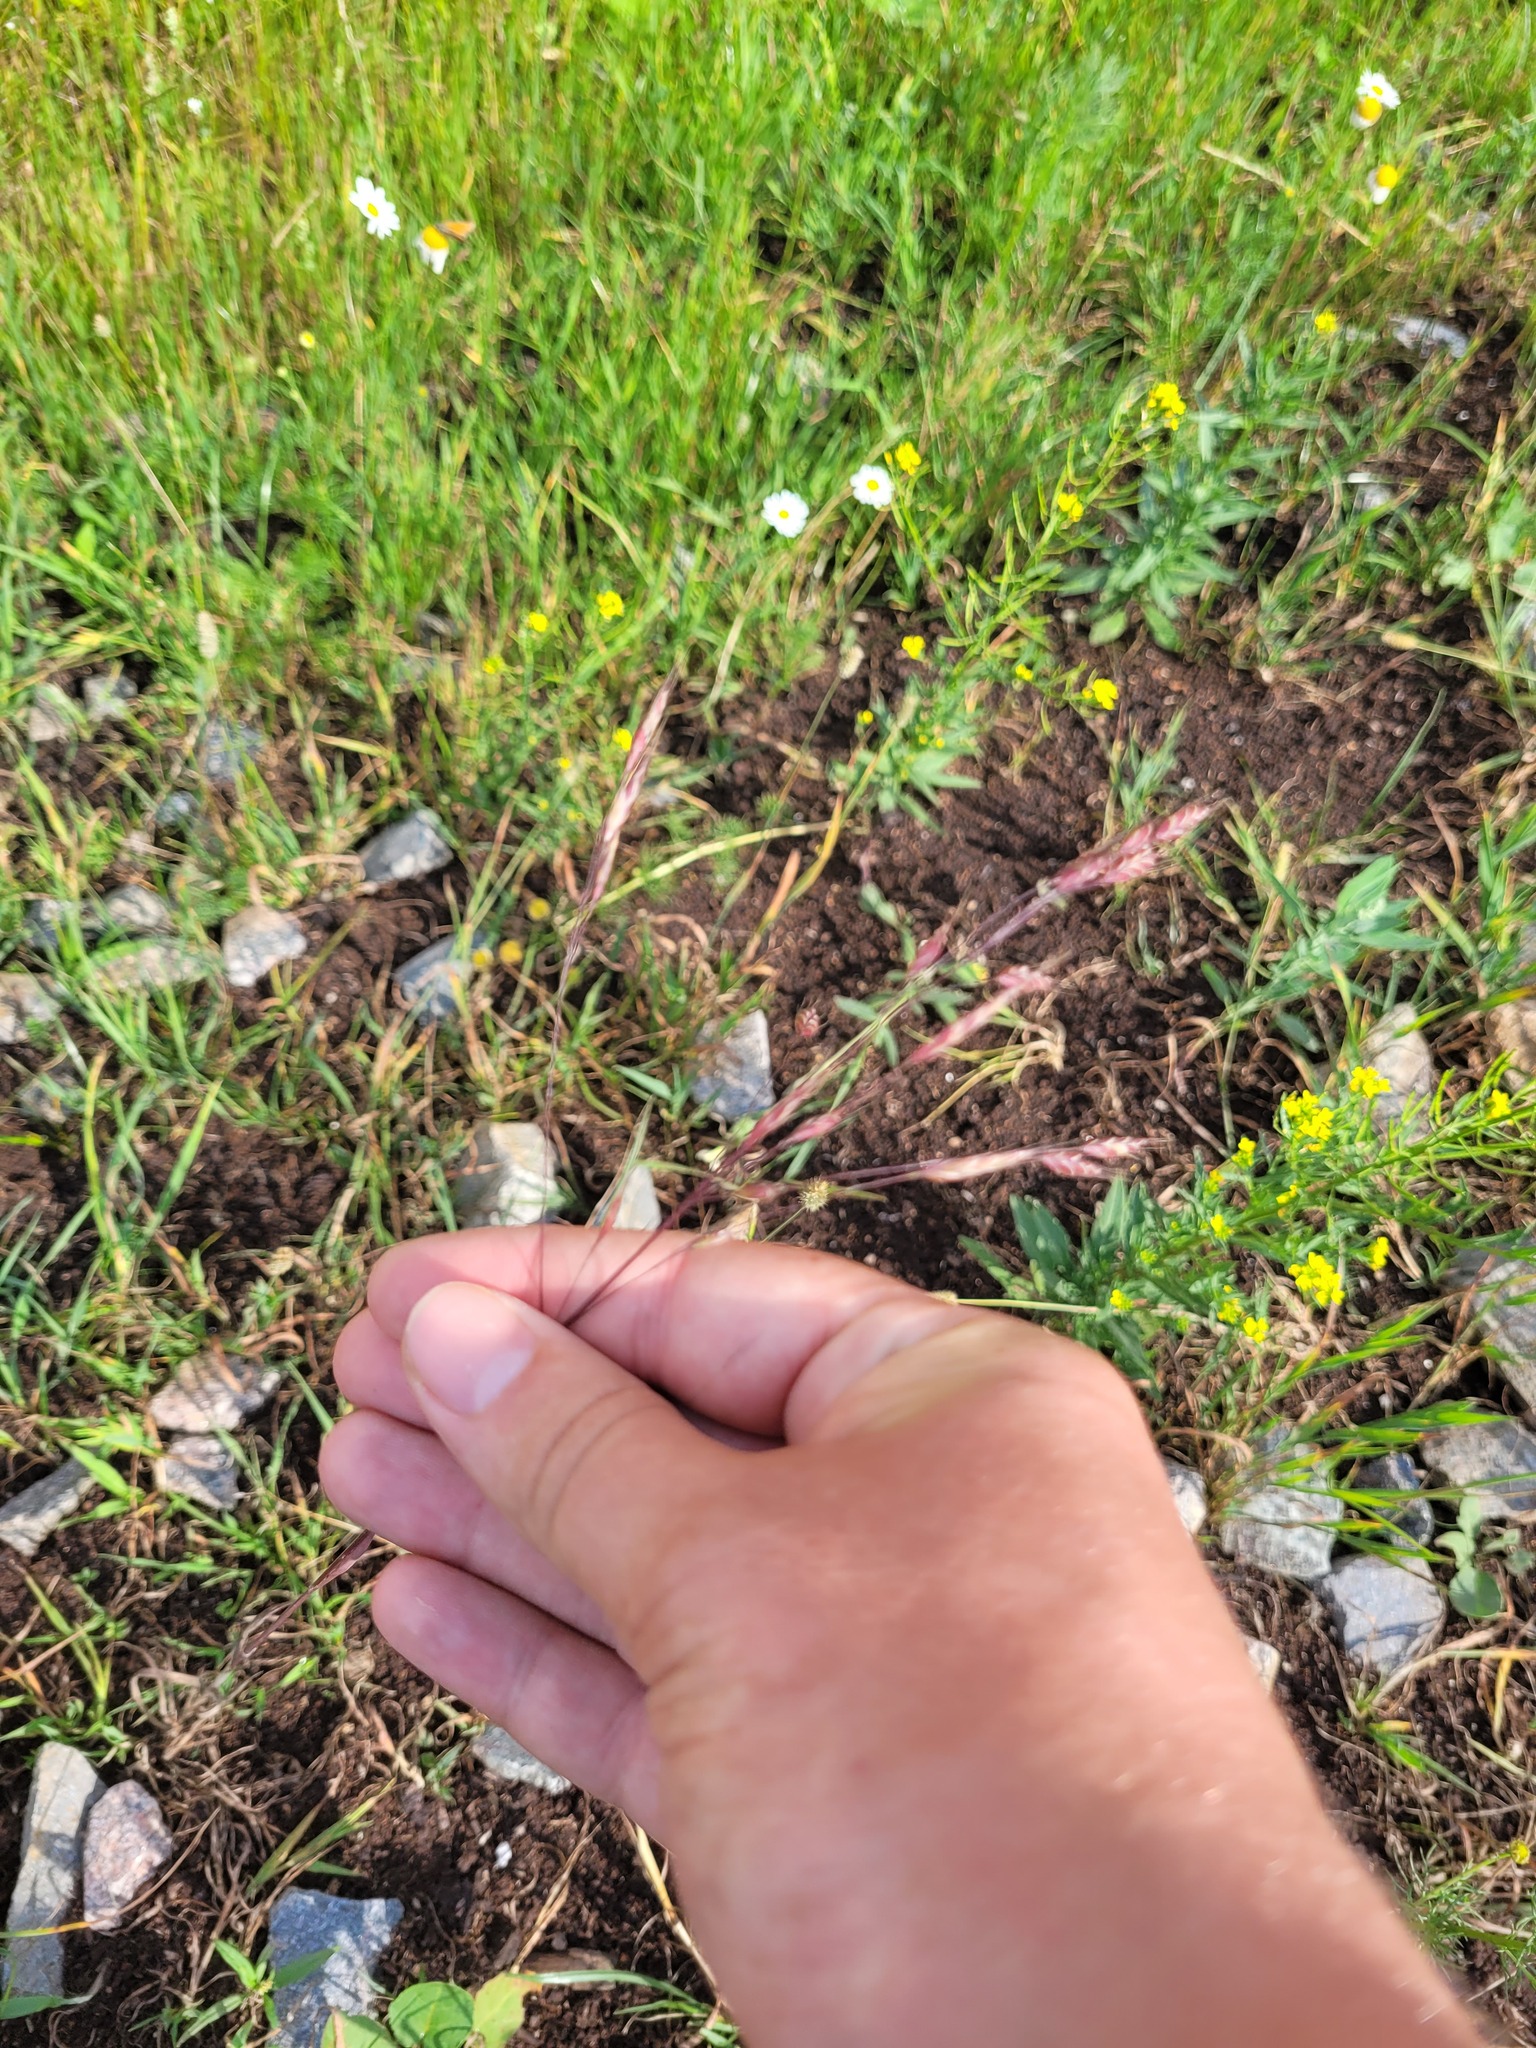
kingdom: Plantae
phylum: Tracheophyta
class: Liliopsida
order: Poales
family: Poaceae
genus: Bromus
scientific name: Bromus arvensis
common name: Field brome
